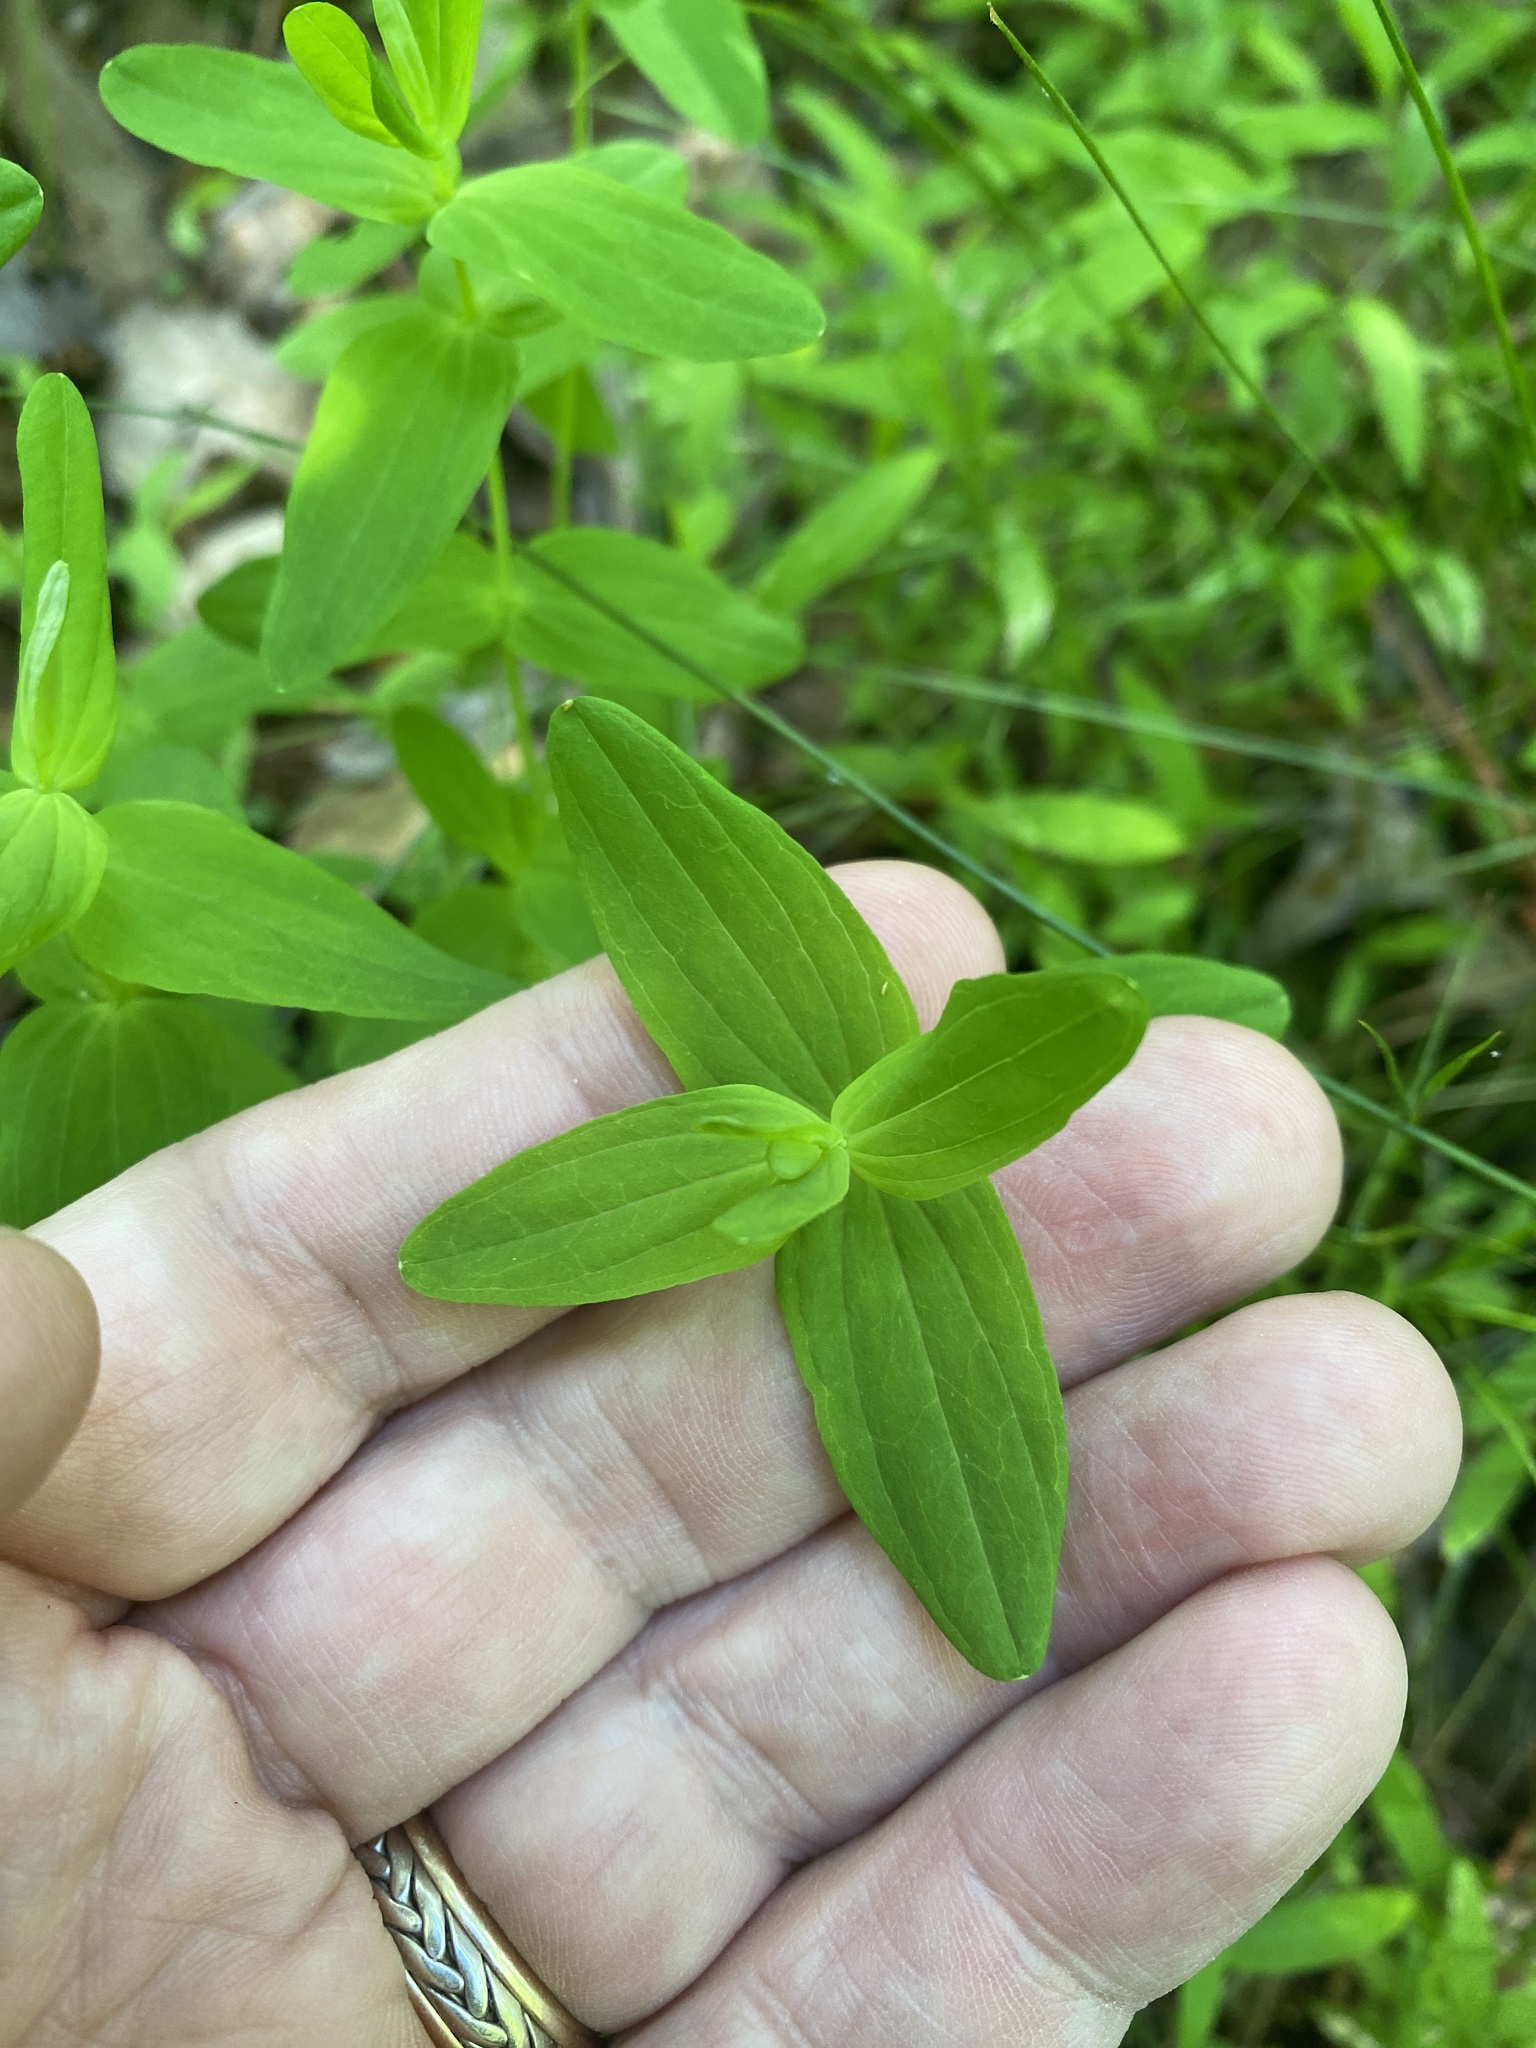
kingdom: Plantae
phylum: Tracheophyta
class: Magnoliopsida
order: Malpighiales
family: Hypericaceae
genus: Hypericum
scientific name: Hypericum punctatum
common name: Spotted st. john's-wort
